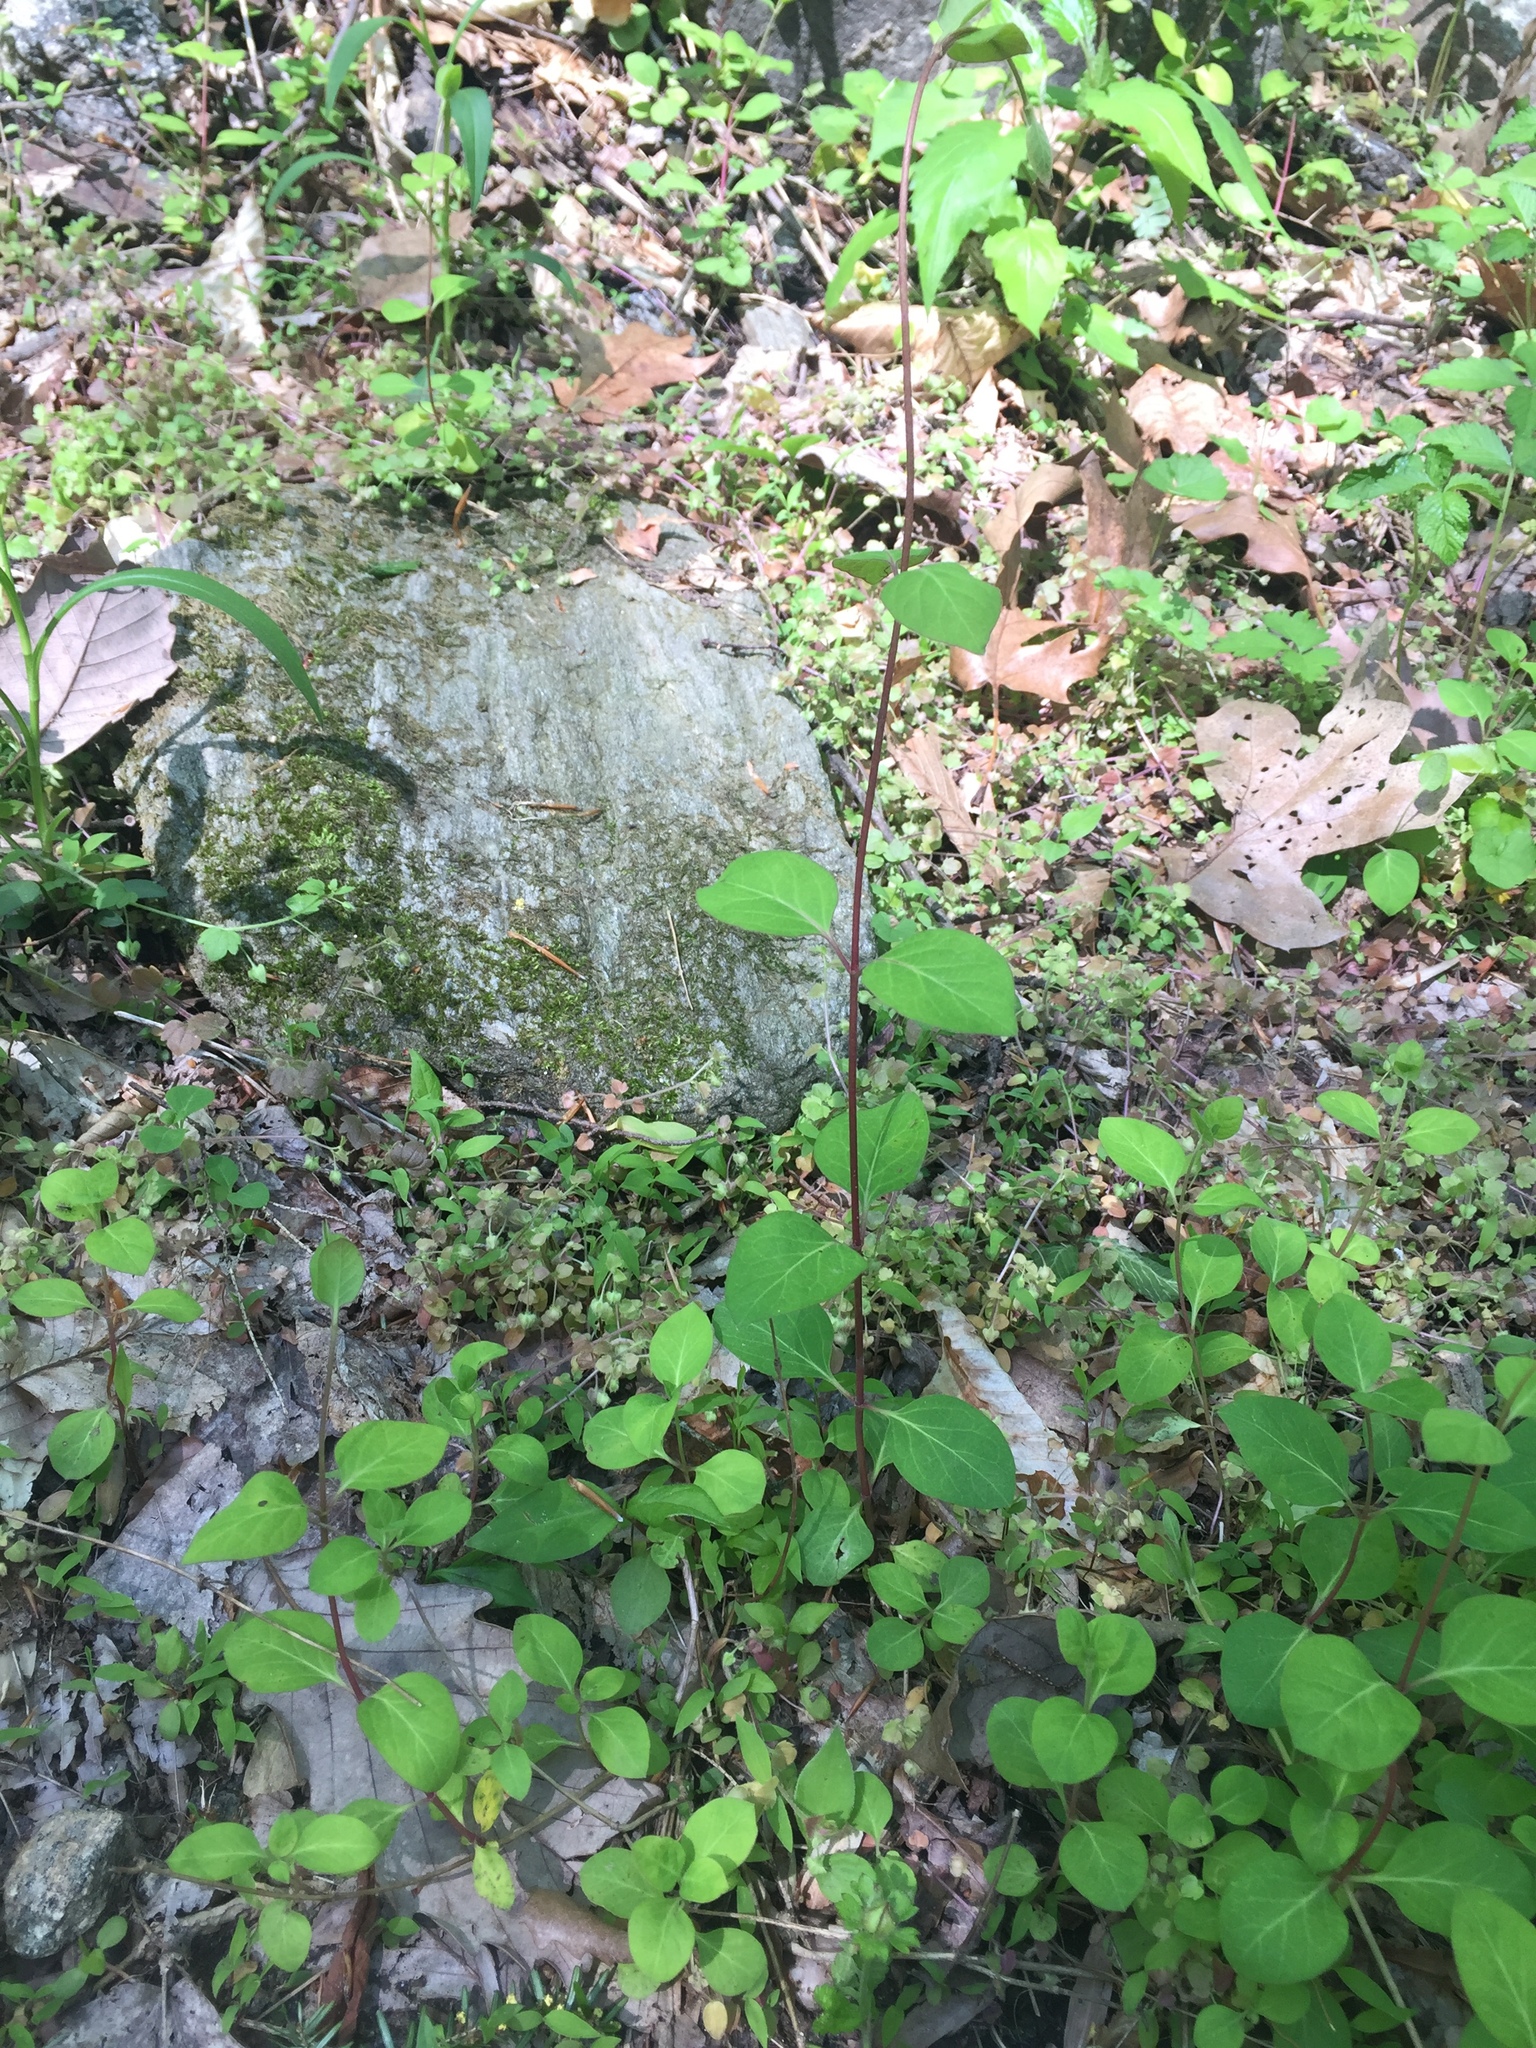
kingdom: Plantae
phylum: Tracheophyta
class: Magnoliopsida
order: Dipsacales
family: Caprifoliaceae
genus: Lonicera
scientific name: Lonicera japonica
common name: Japanese honeysuckle
